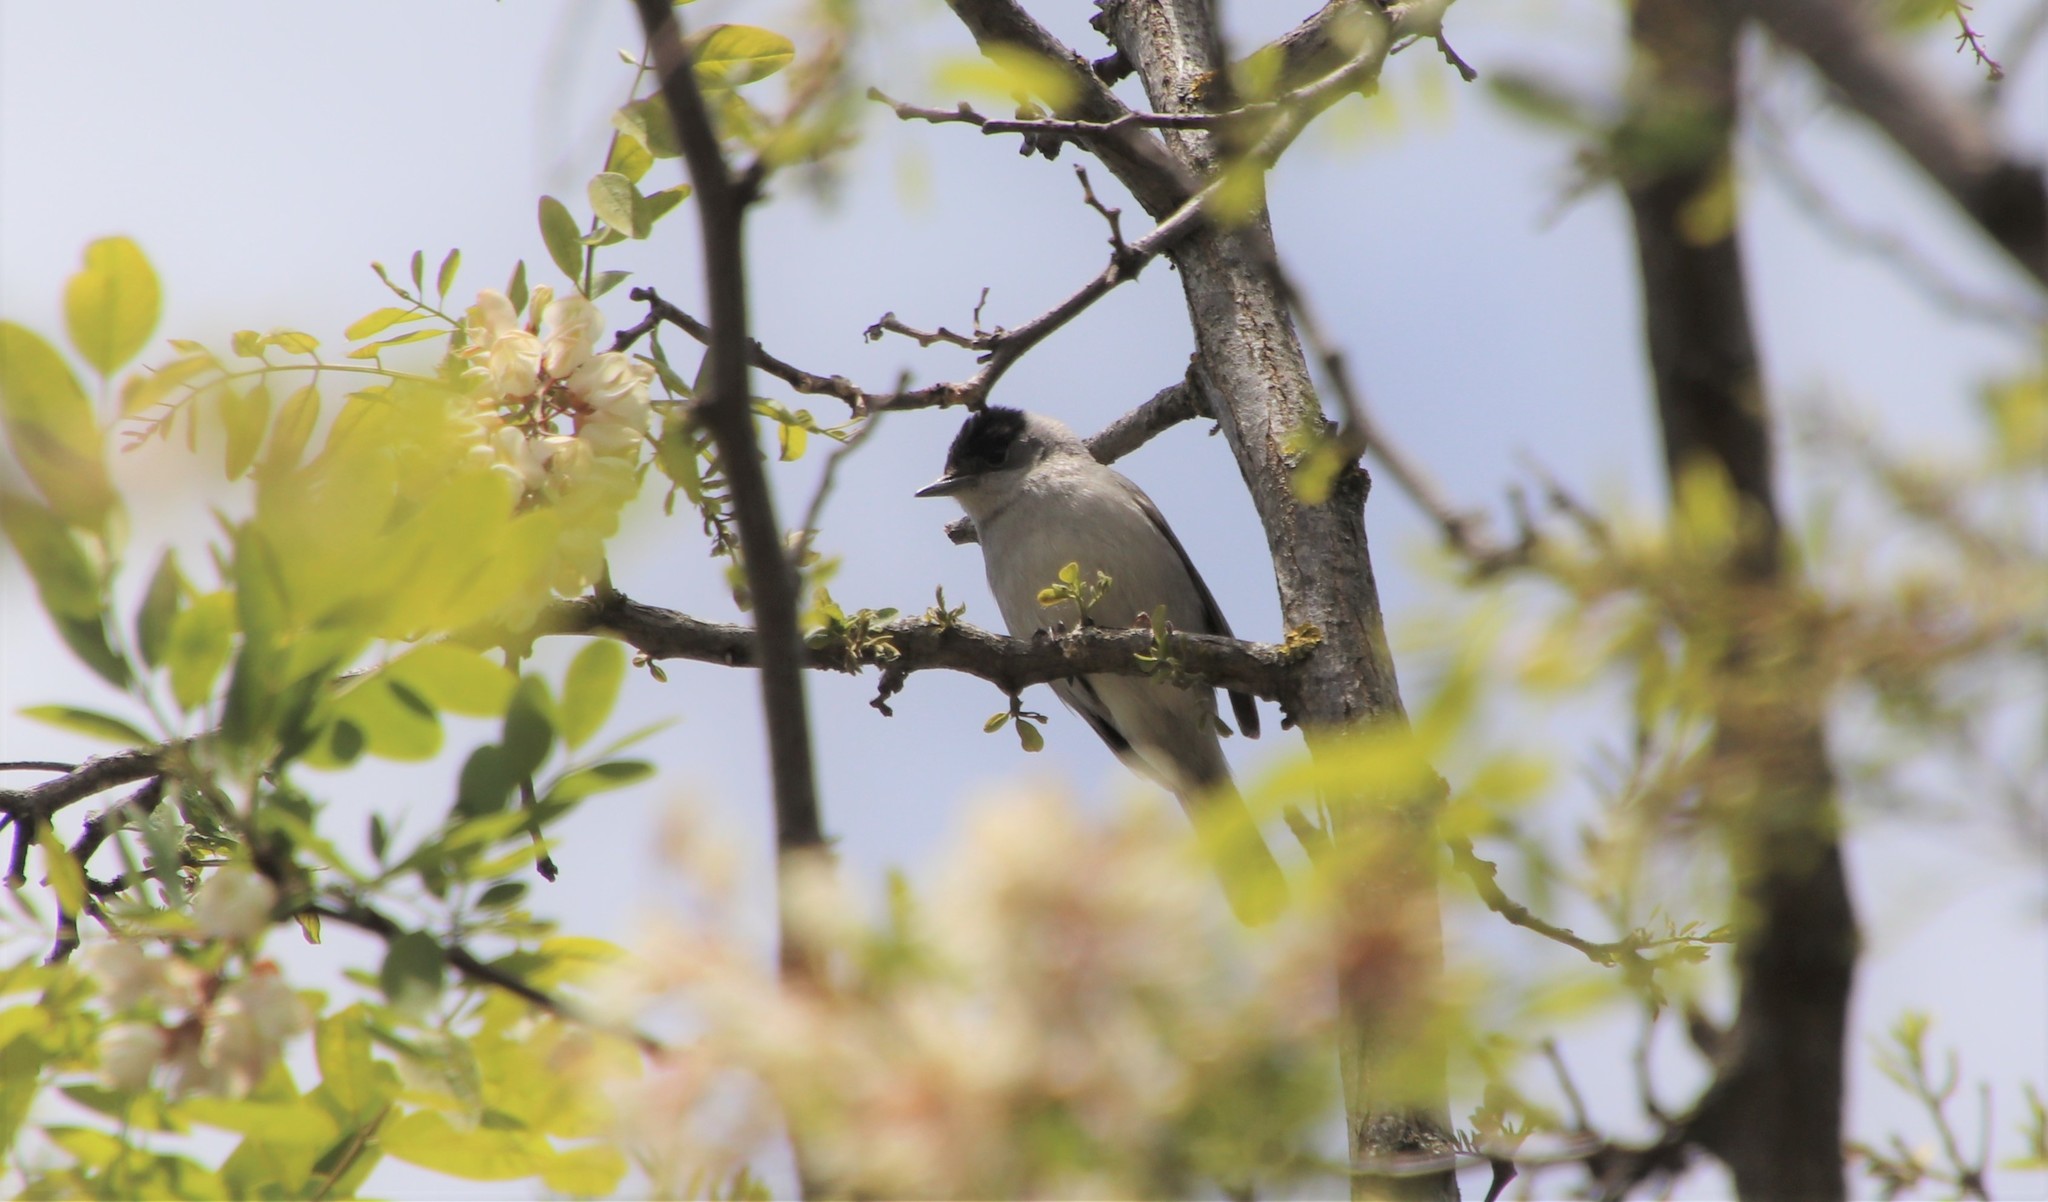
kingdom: Animalia
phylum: Chordata
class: Aves
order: Passeriformes
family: Sylviidae
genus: Sylvia
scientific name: Sylvia atricapilla
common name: Eurasian blackcap
